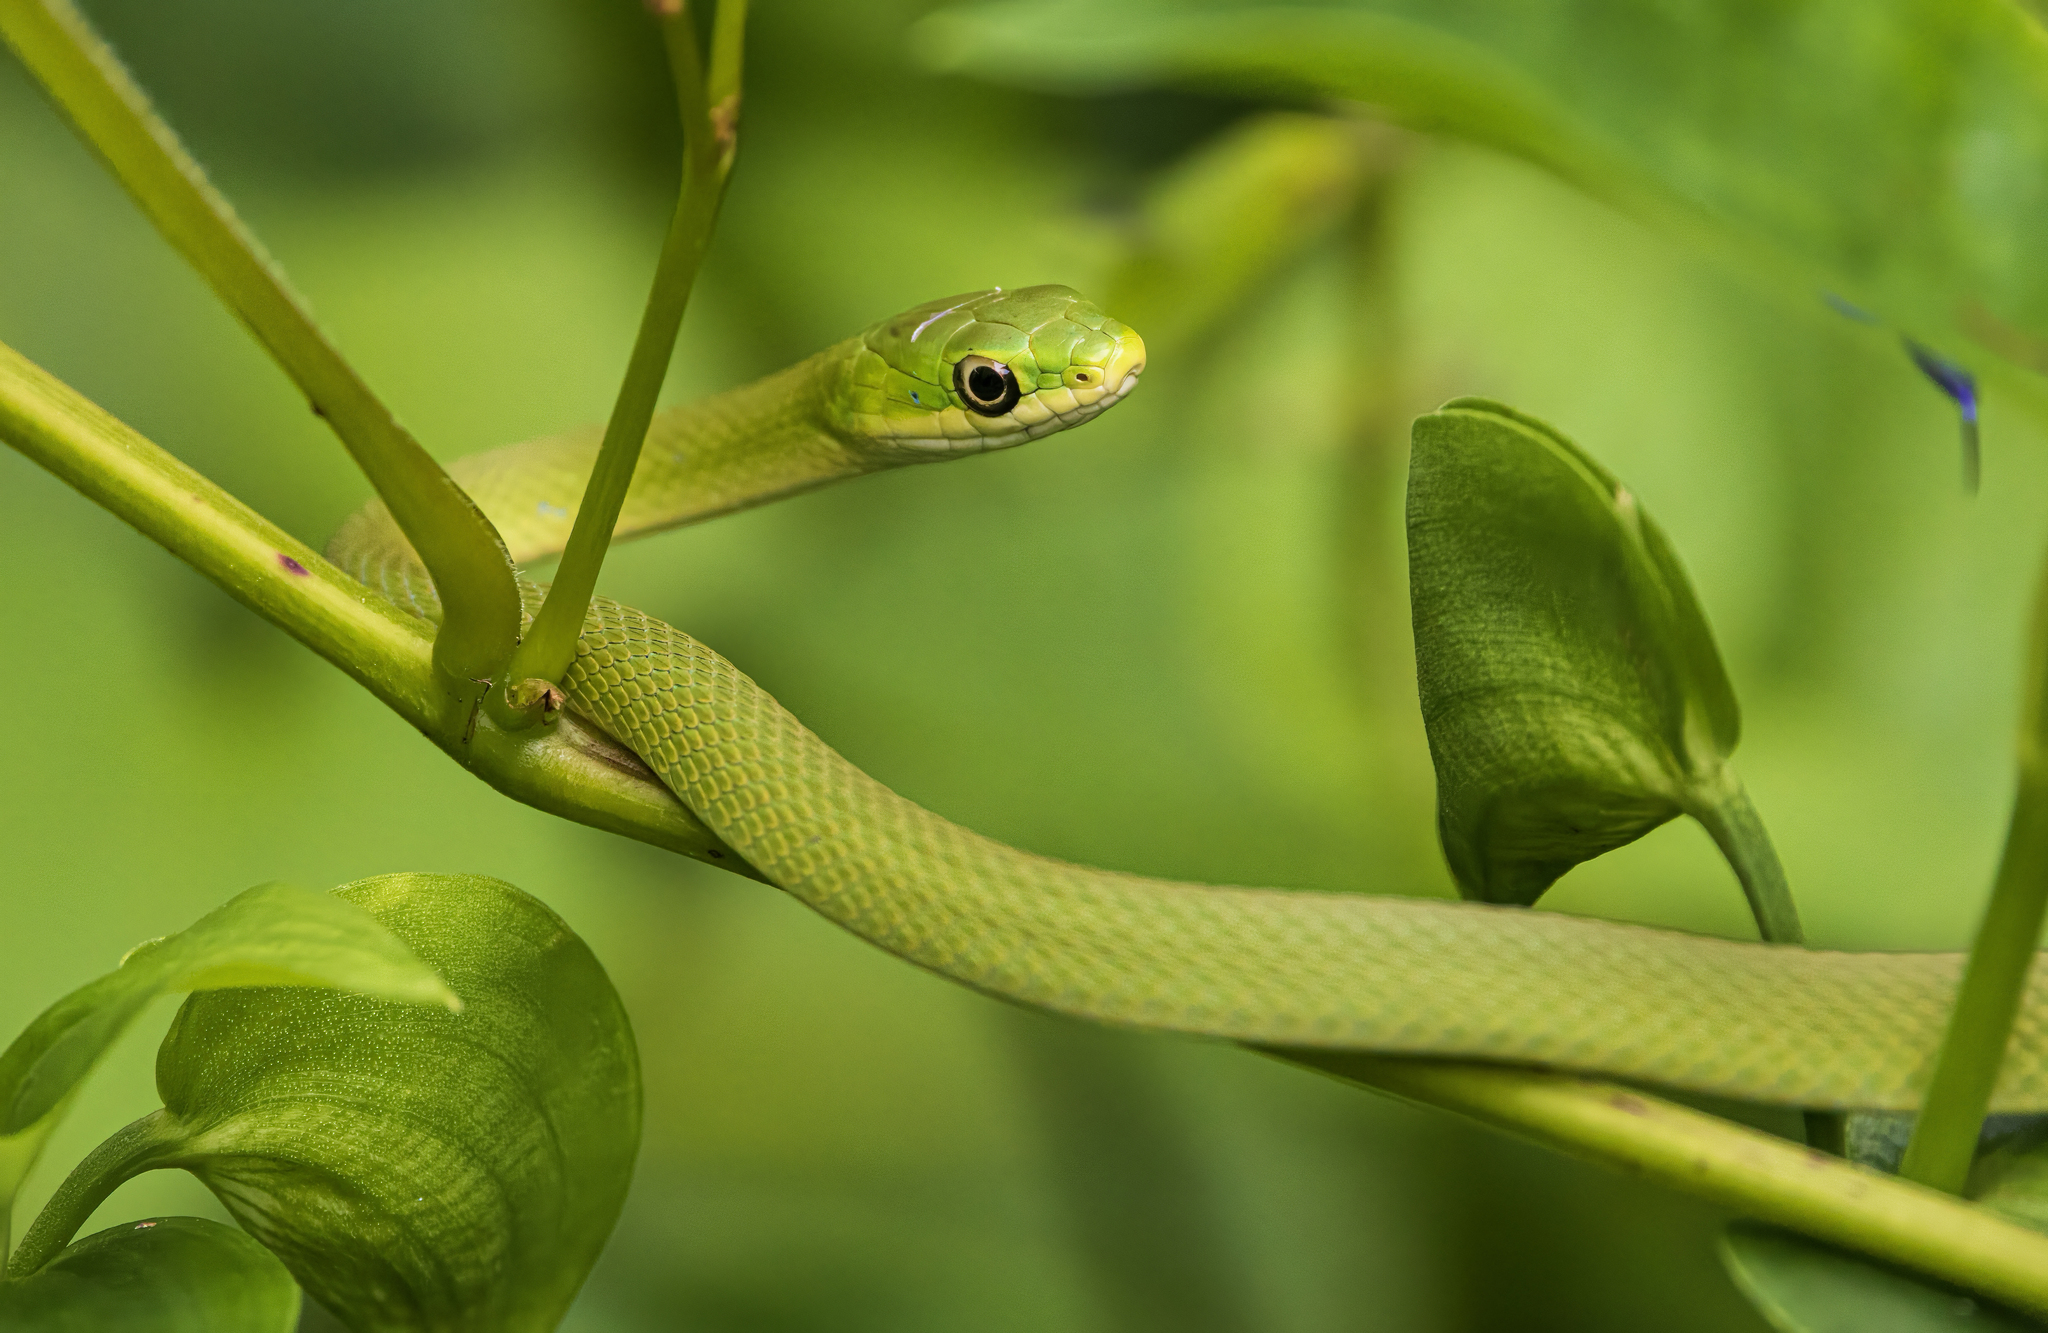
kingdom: Animalia
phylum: Chordata
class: Squamata
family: Colubridae
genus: Opheodrys
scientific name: Opheodrys aestivus
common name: Rough greensnake
